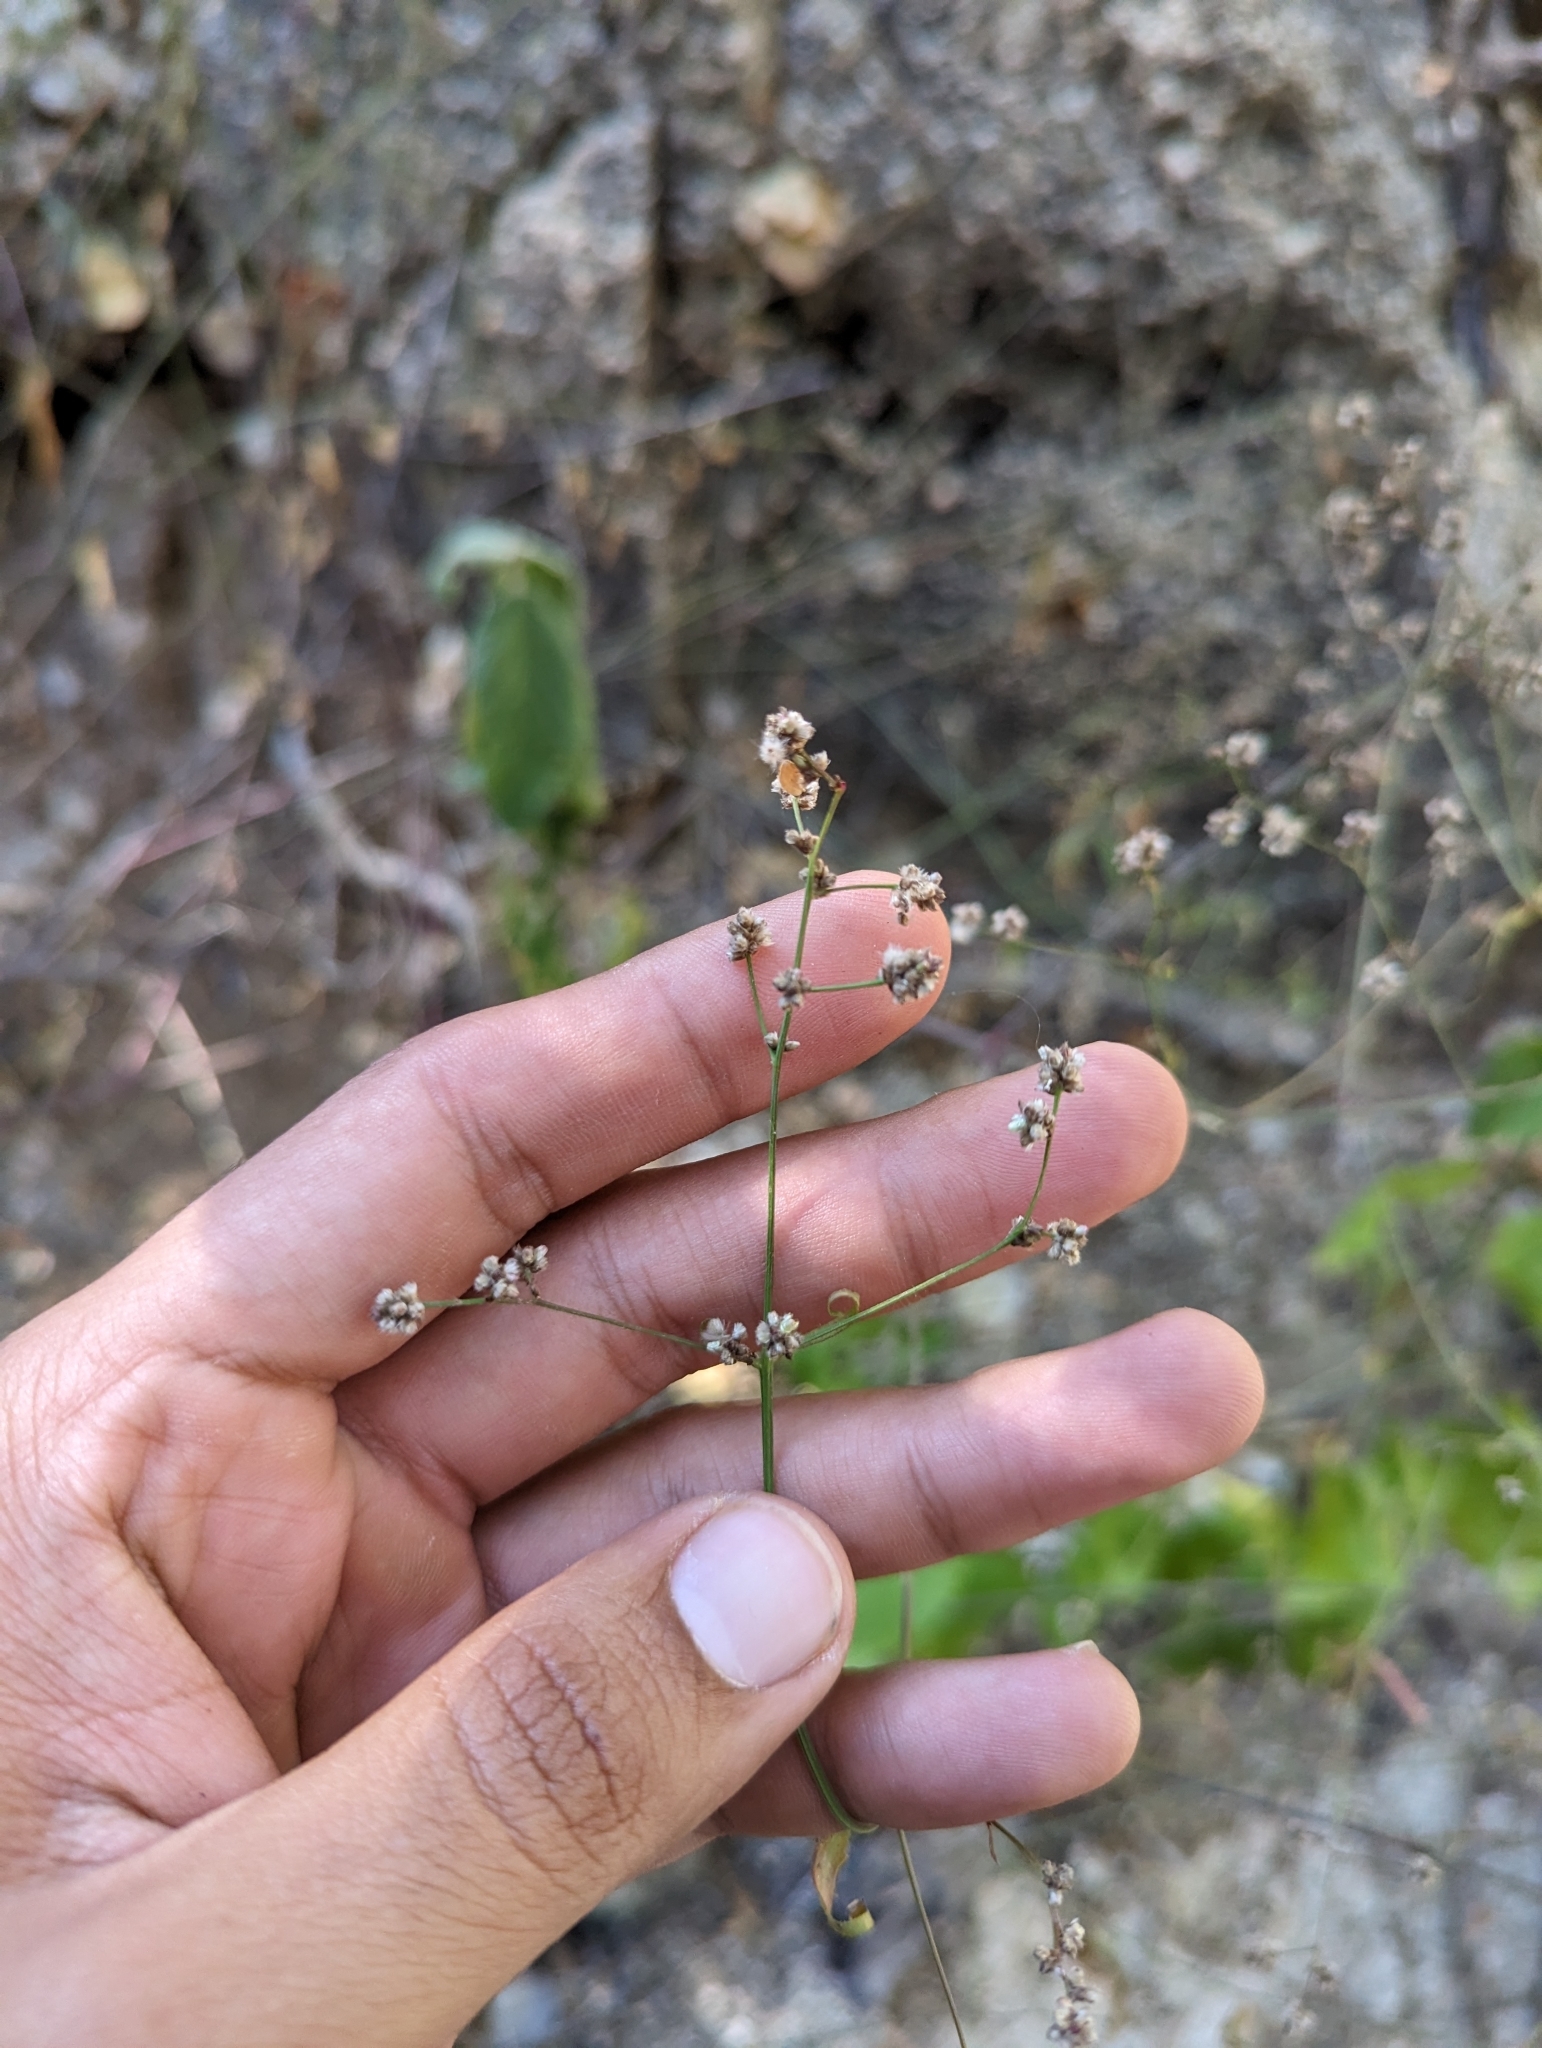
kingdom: Plantae
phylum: Tracheophyta
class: Magnoliopsida
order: Caryophyllales
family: Amaranthaceae
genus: Iresine
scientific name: Iresine angustifolia
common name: White snowplant
